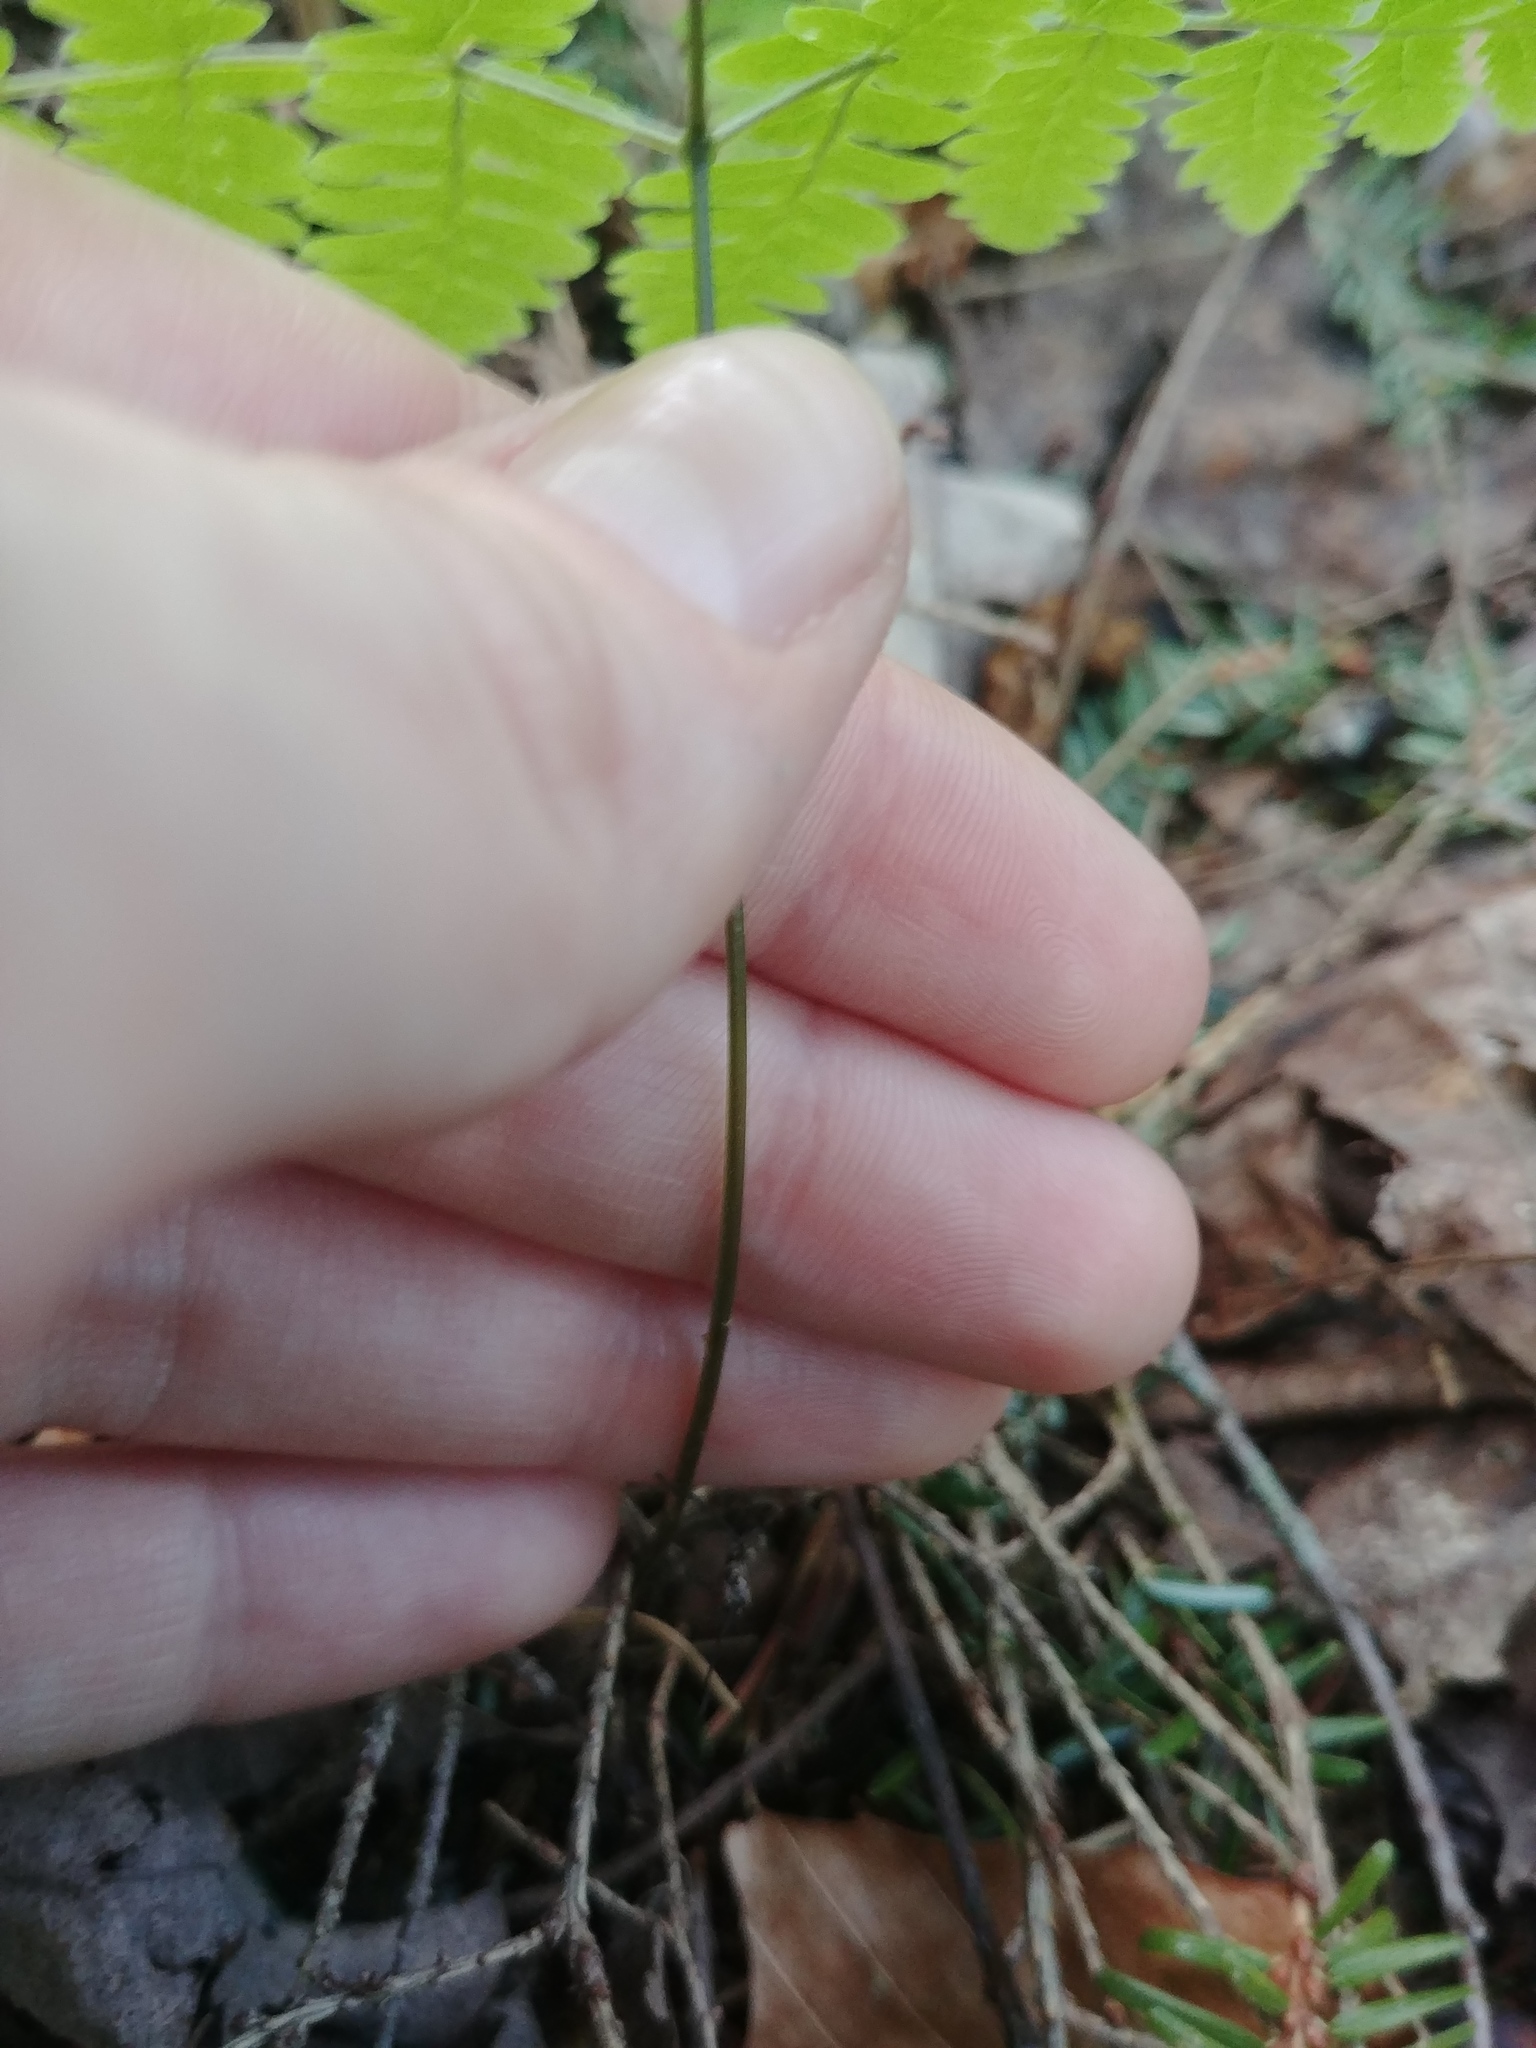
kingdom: Plantae
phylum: Tracheophyta
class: Polypodiopsida
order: Polypodiales
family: Cystopteridaceae
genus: Gymnocarpium
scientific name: Gymnocarpium dryopteris
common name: Oak fern
